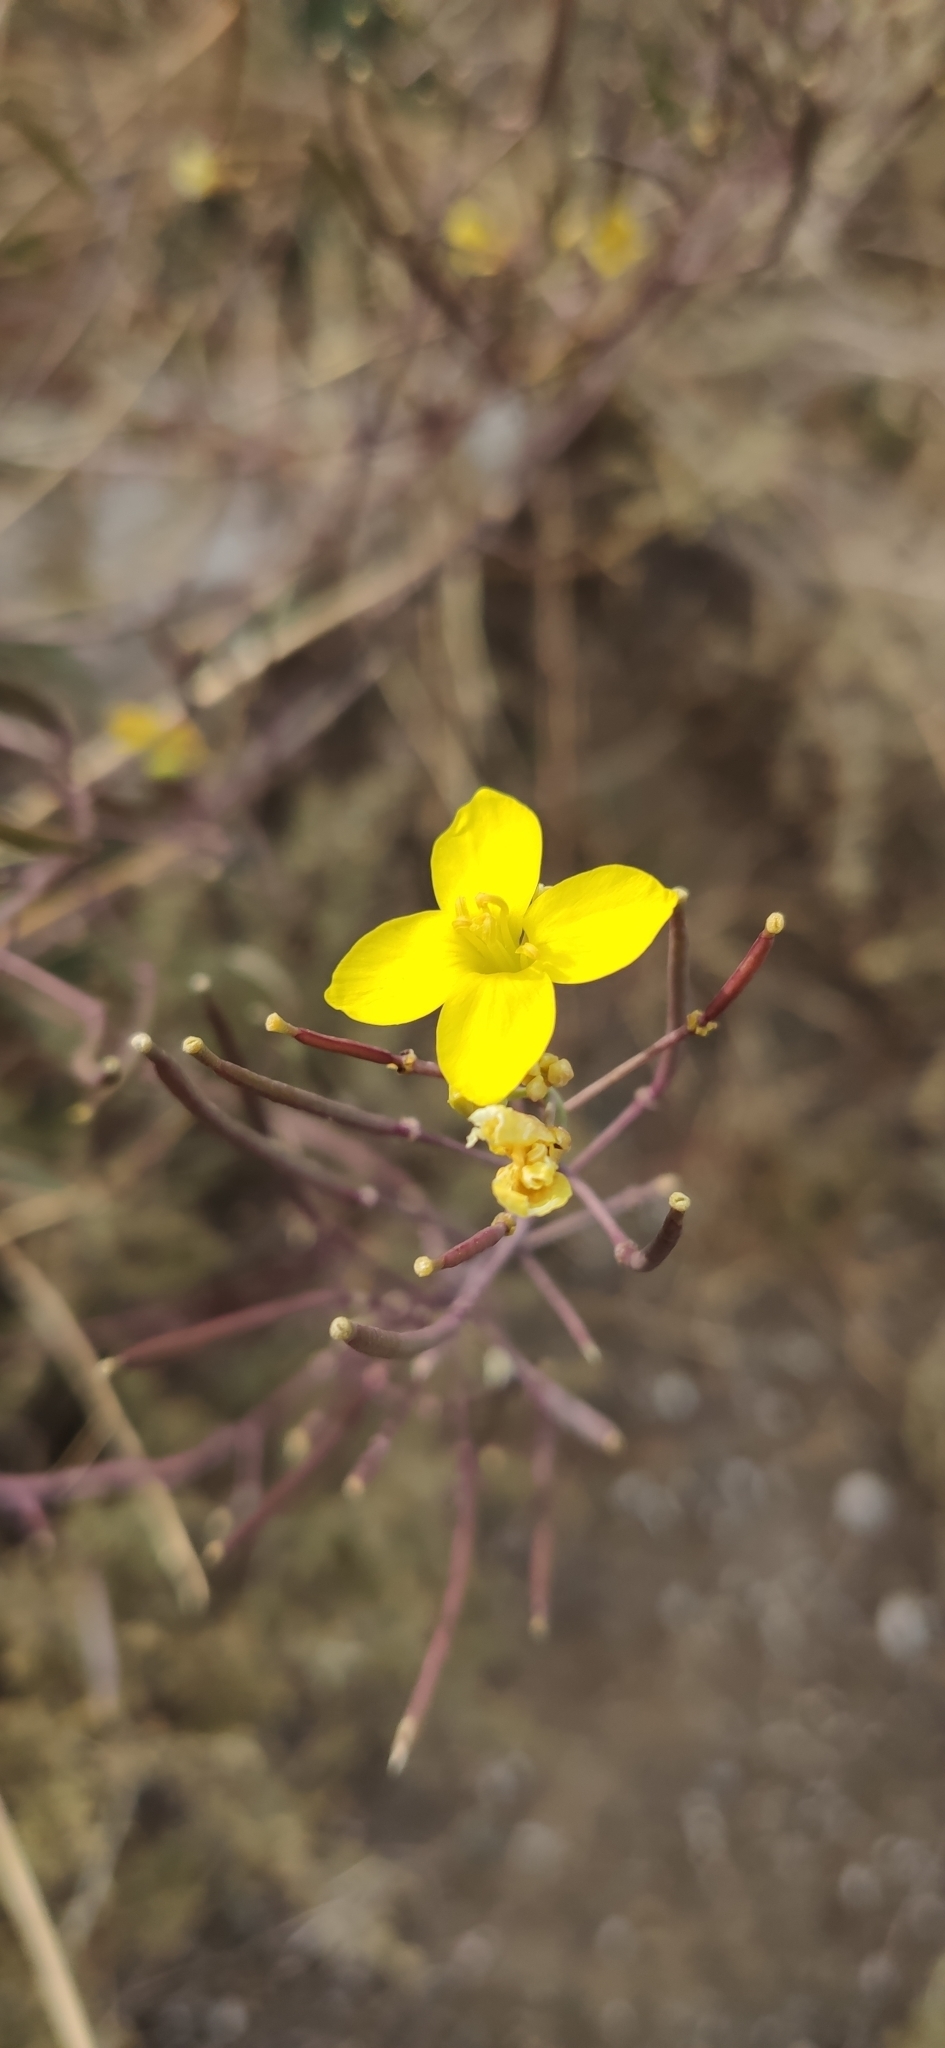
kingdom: Plantae
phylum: Tracheophyta
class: Magnoliopsida
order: Brassicales
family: Brassicaceae
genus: Diplotaxis
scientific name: Diplotaxis tenuifolia
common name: Perennial wall-rocket
